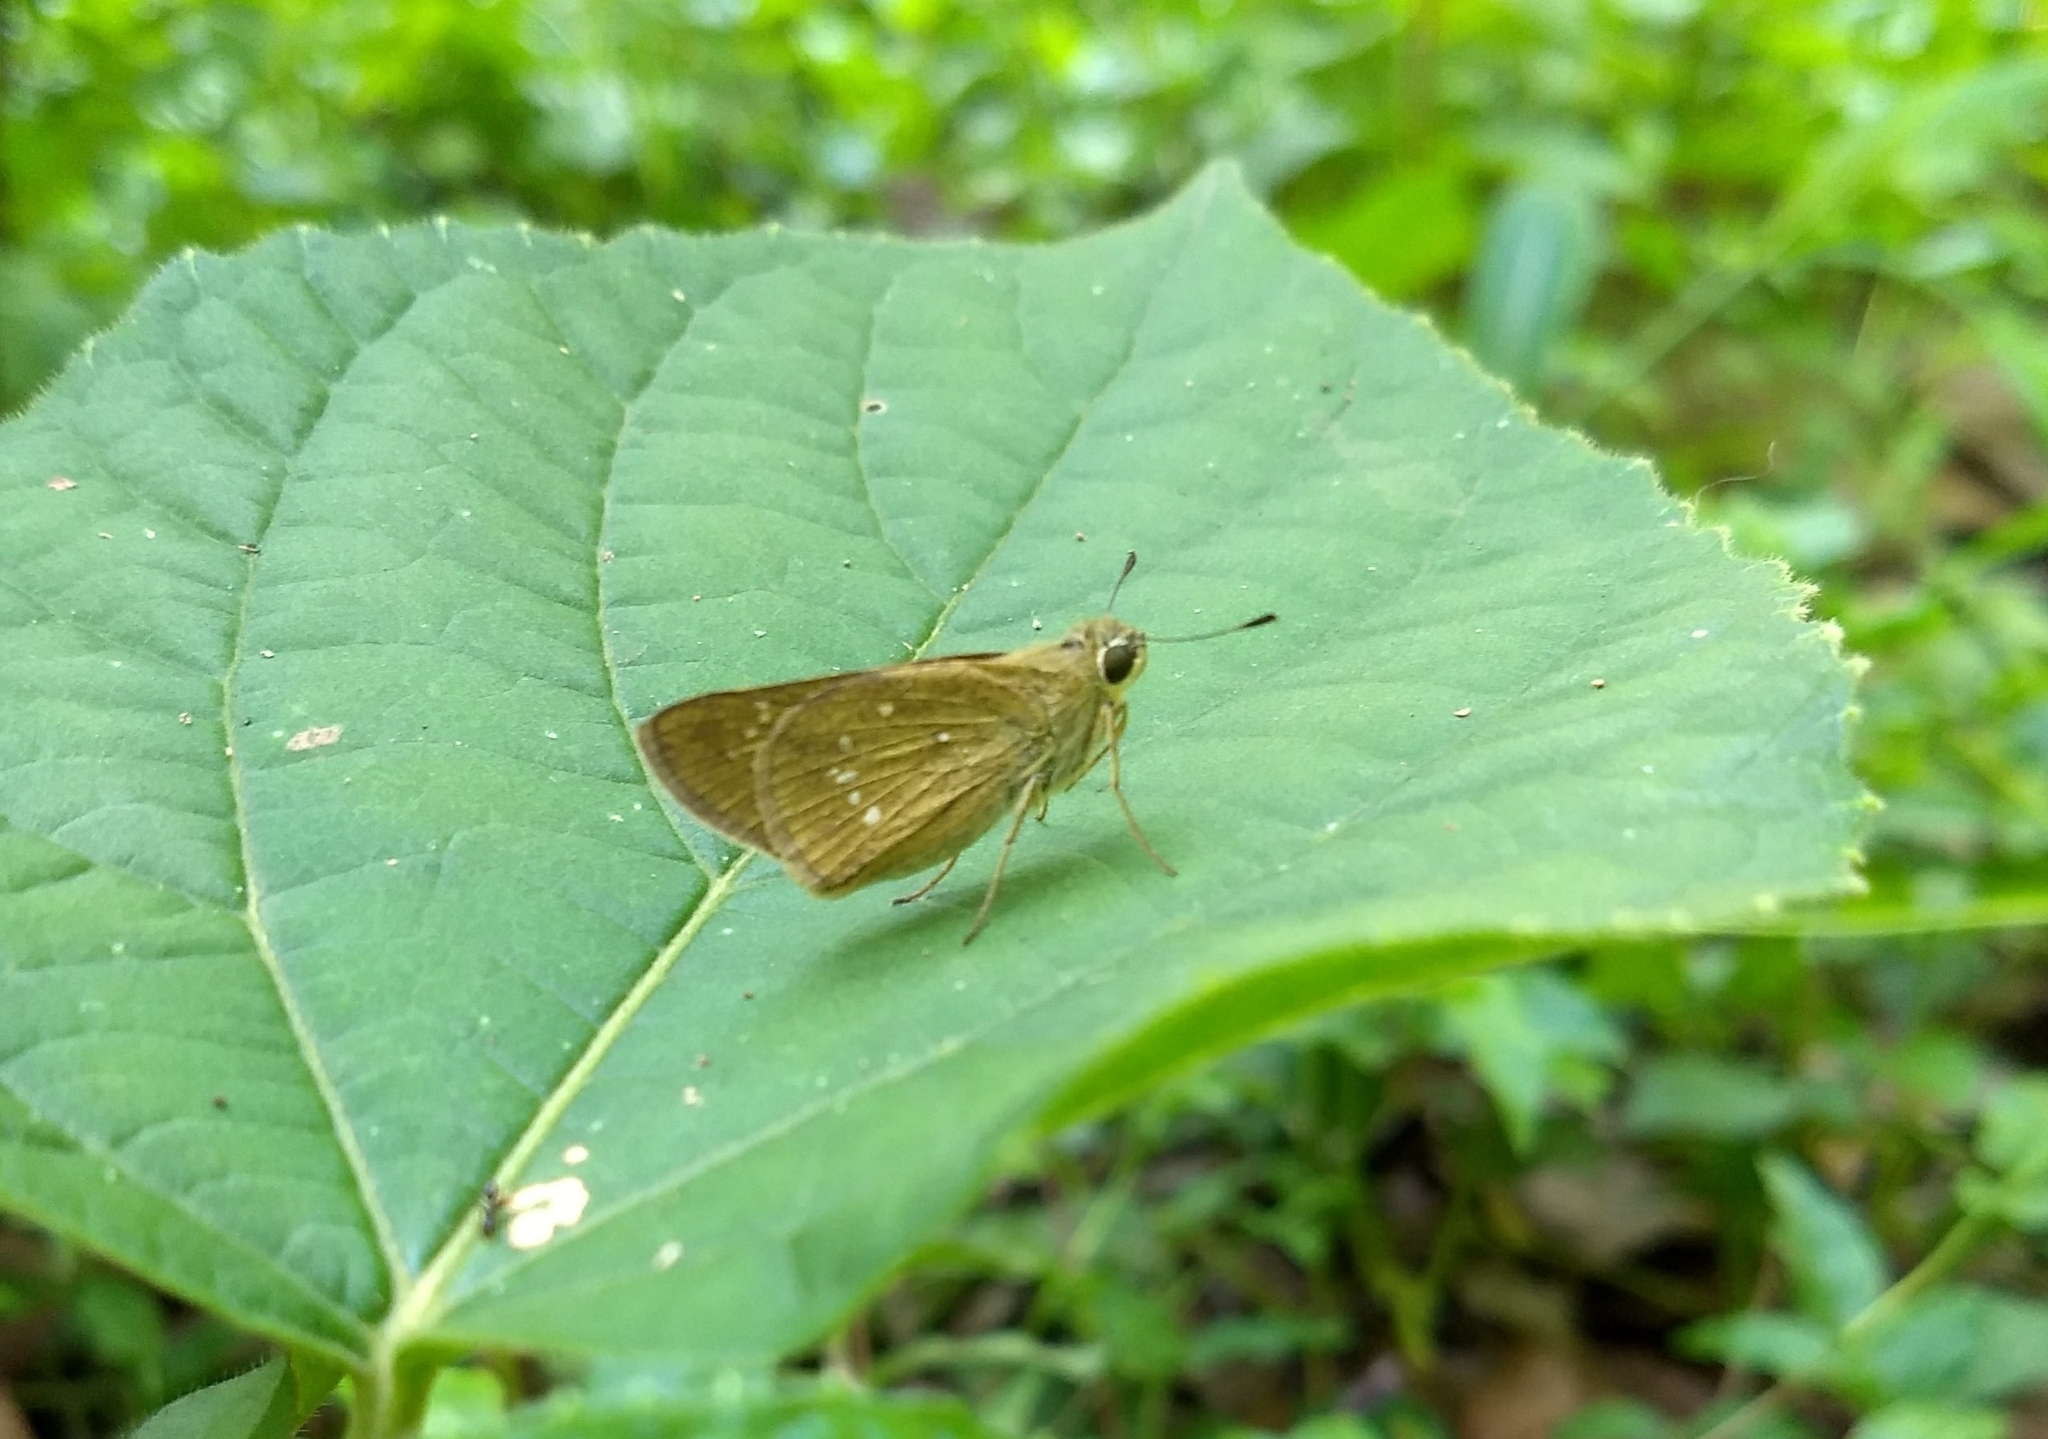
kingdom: Animalia
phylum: Arthropoda
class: Insecta
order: Lepidoptera
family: Hesperiidae
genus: Pelopidas
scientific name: Pelopidas mathias
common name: Black-branded swift
